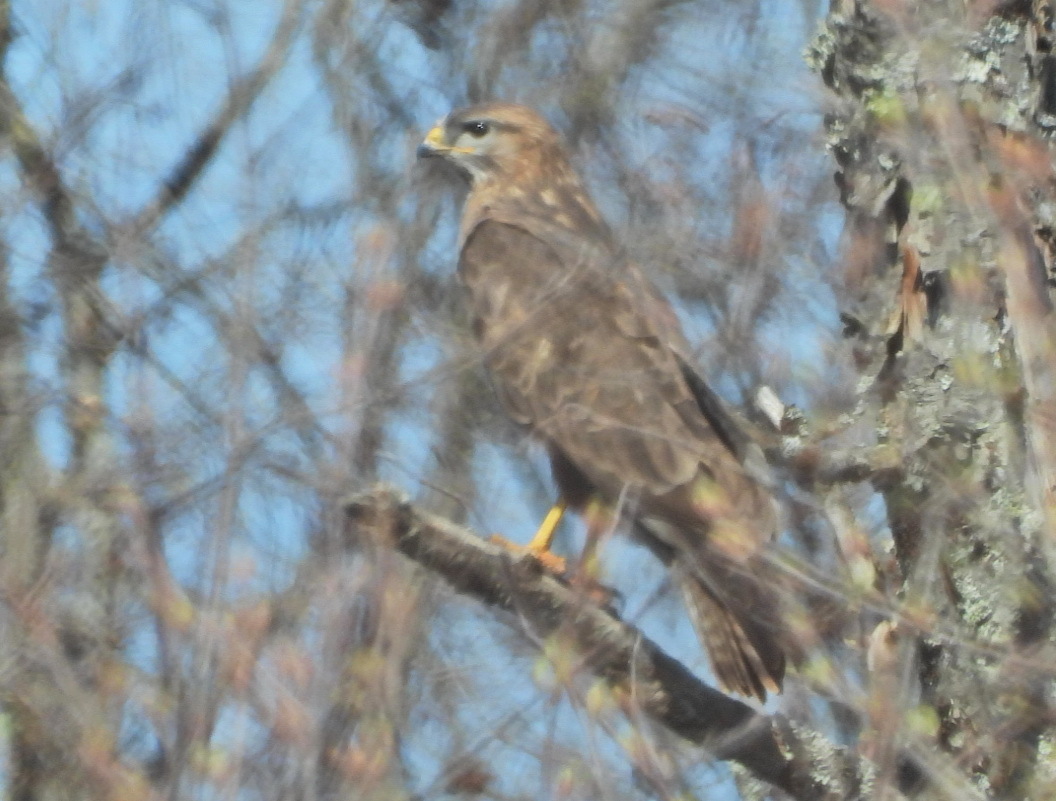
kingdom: Animalia
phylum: Chordata
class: Aves
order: Accipitriformes
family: Accipitridae
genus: Buteo
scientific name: Buteo buteo
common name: Common buzzard
